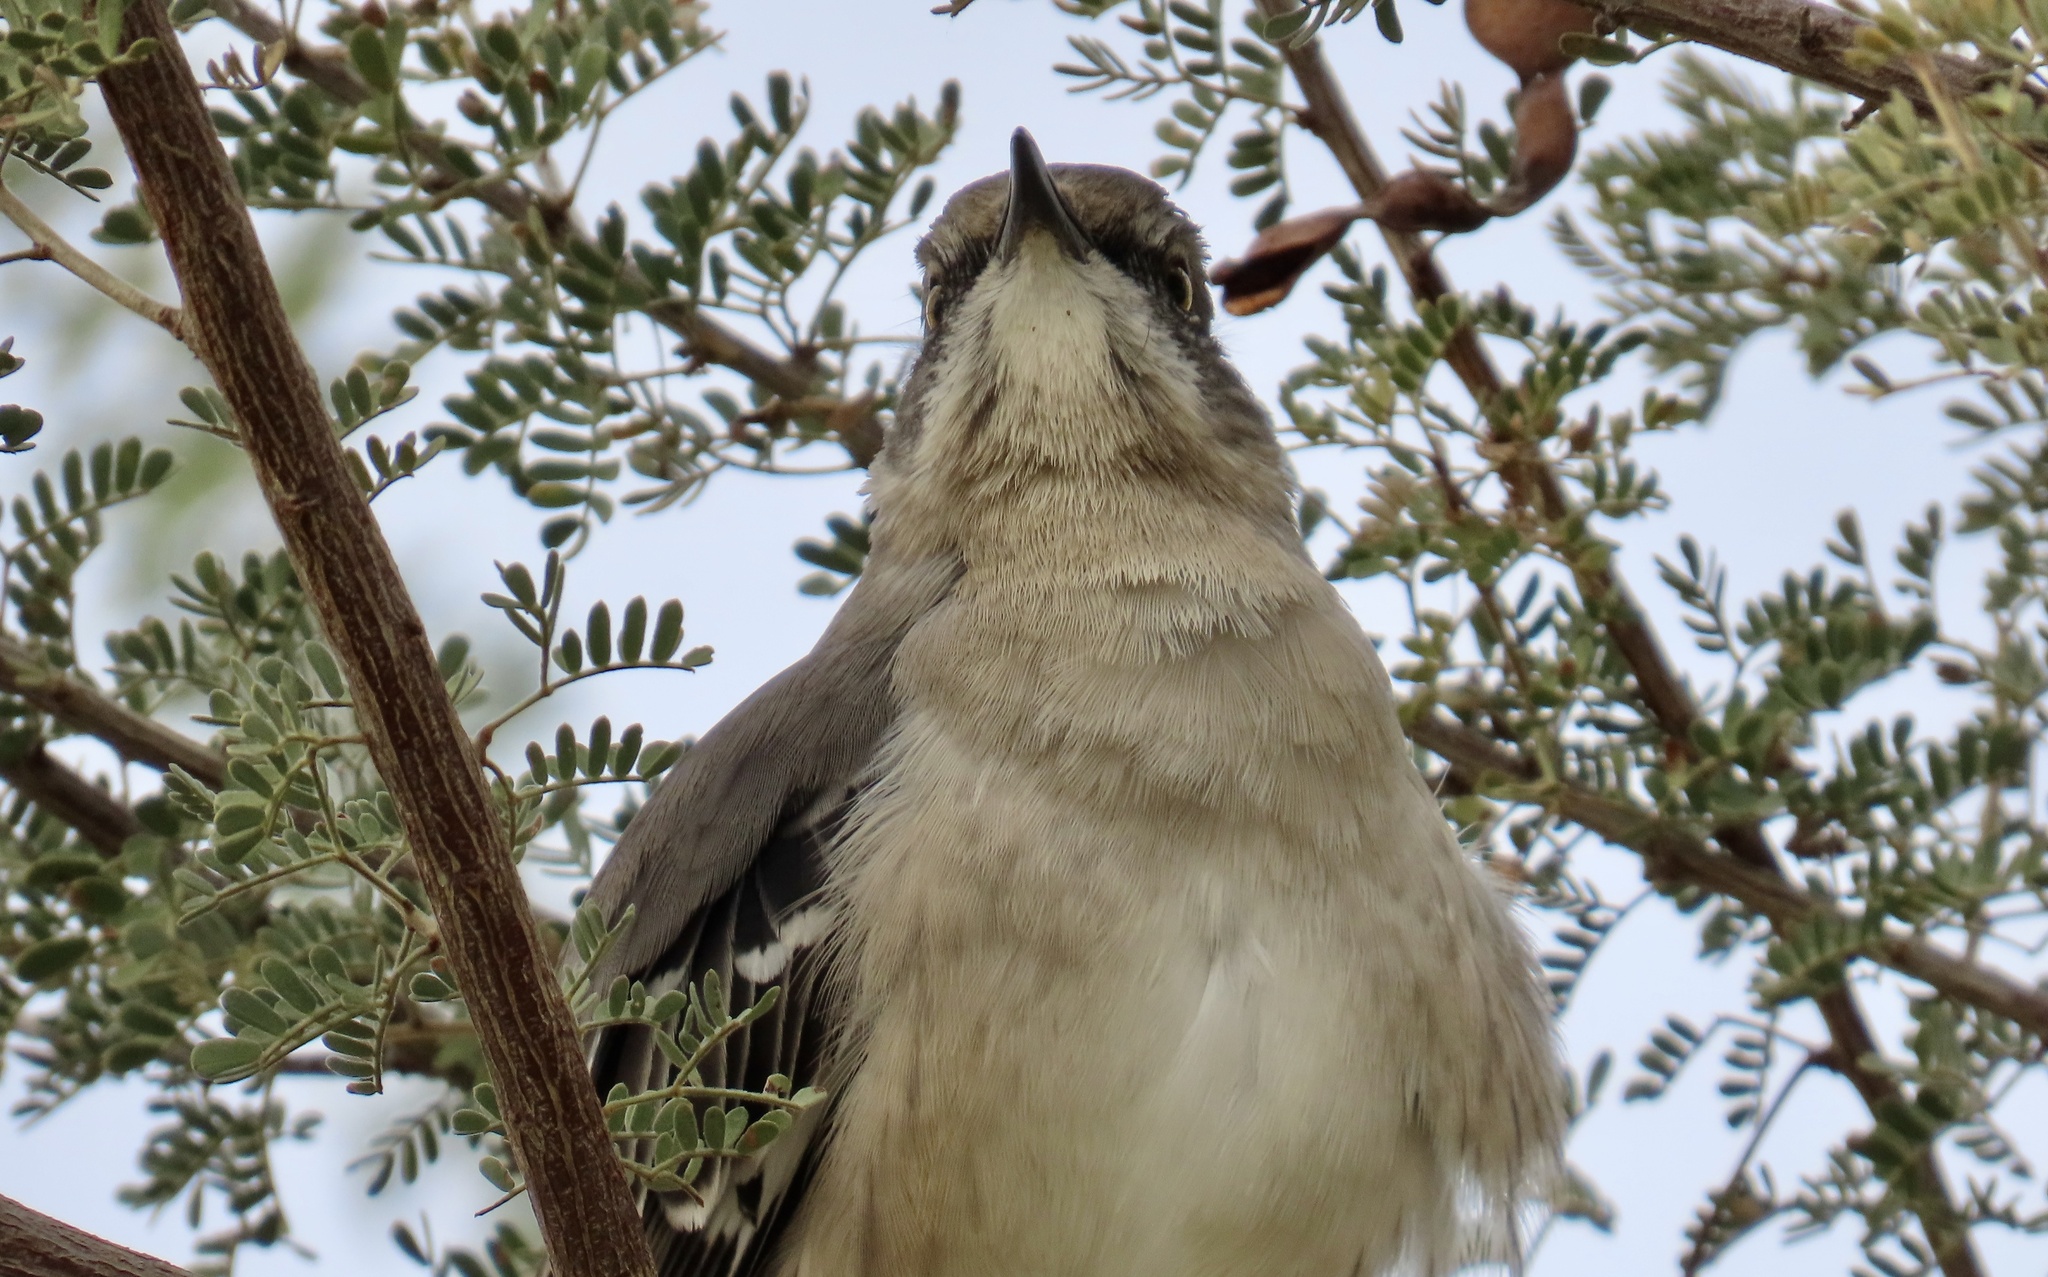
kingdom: Animalia
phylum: Chordata
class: Aves
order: Passeriformes
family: Mimidae
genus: Mimus
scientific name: Mimus polyglottos
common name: Northern mockingbird
